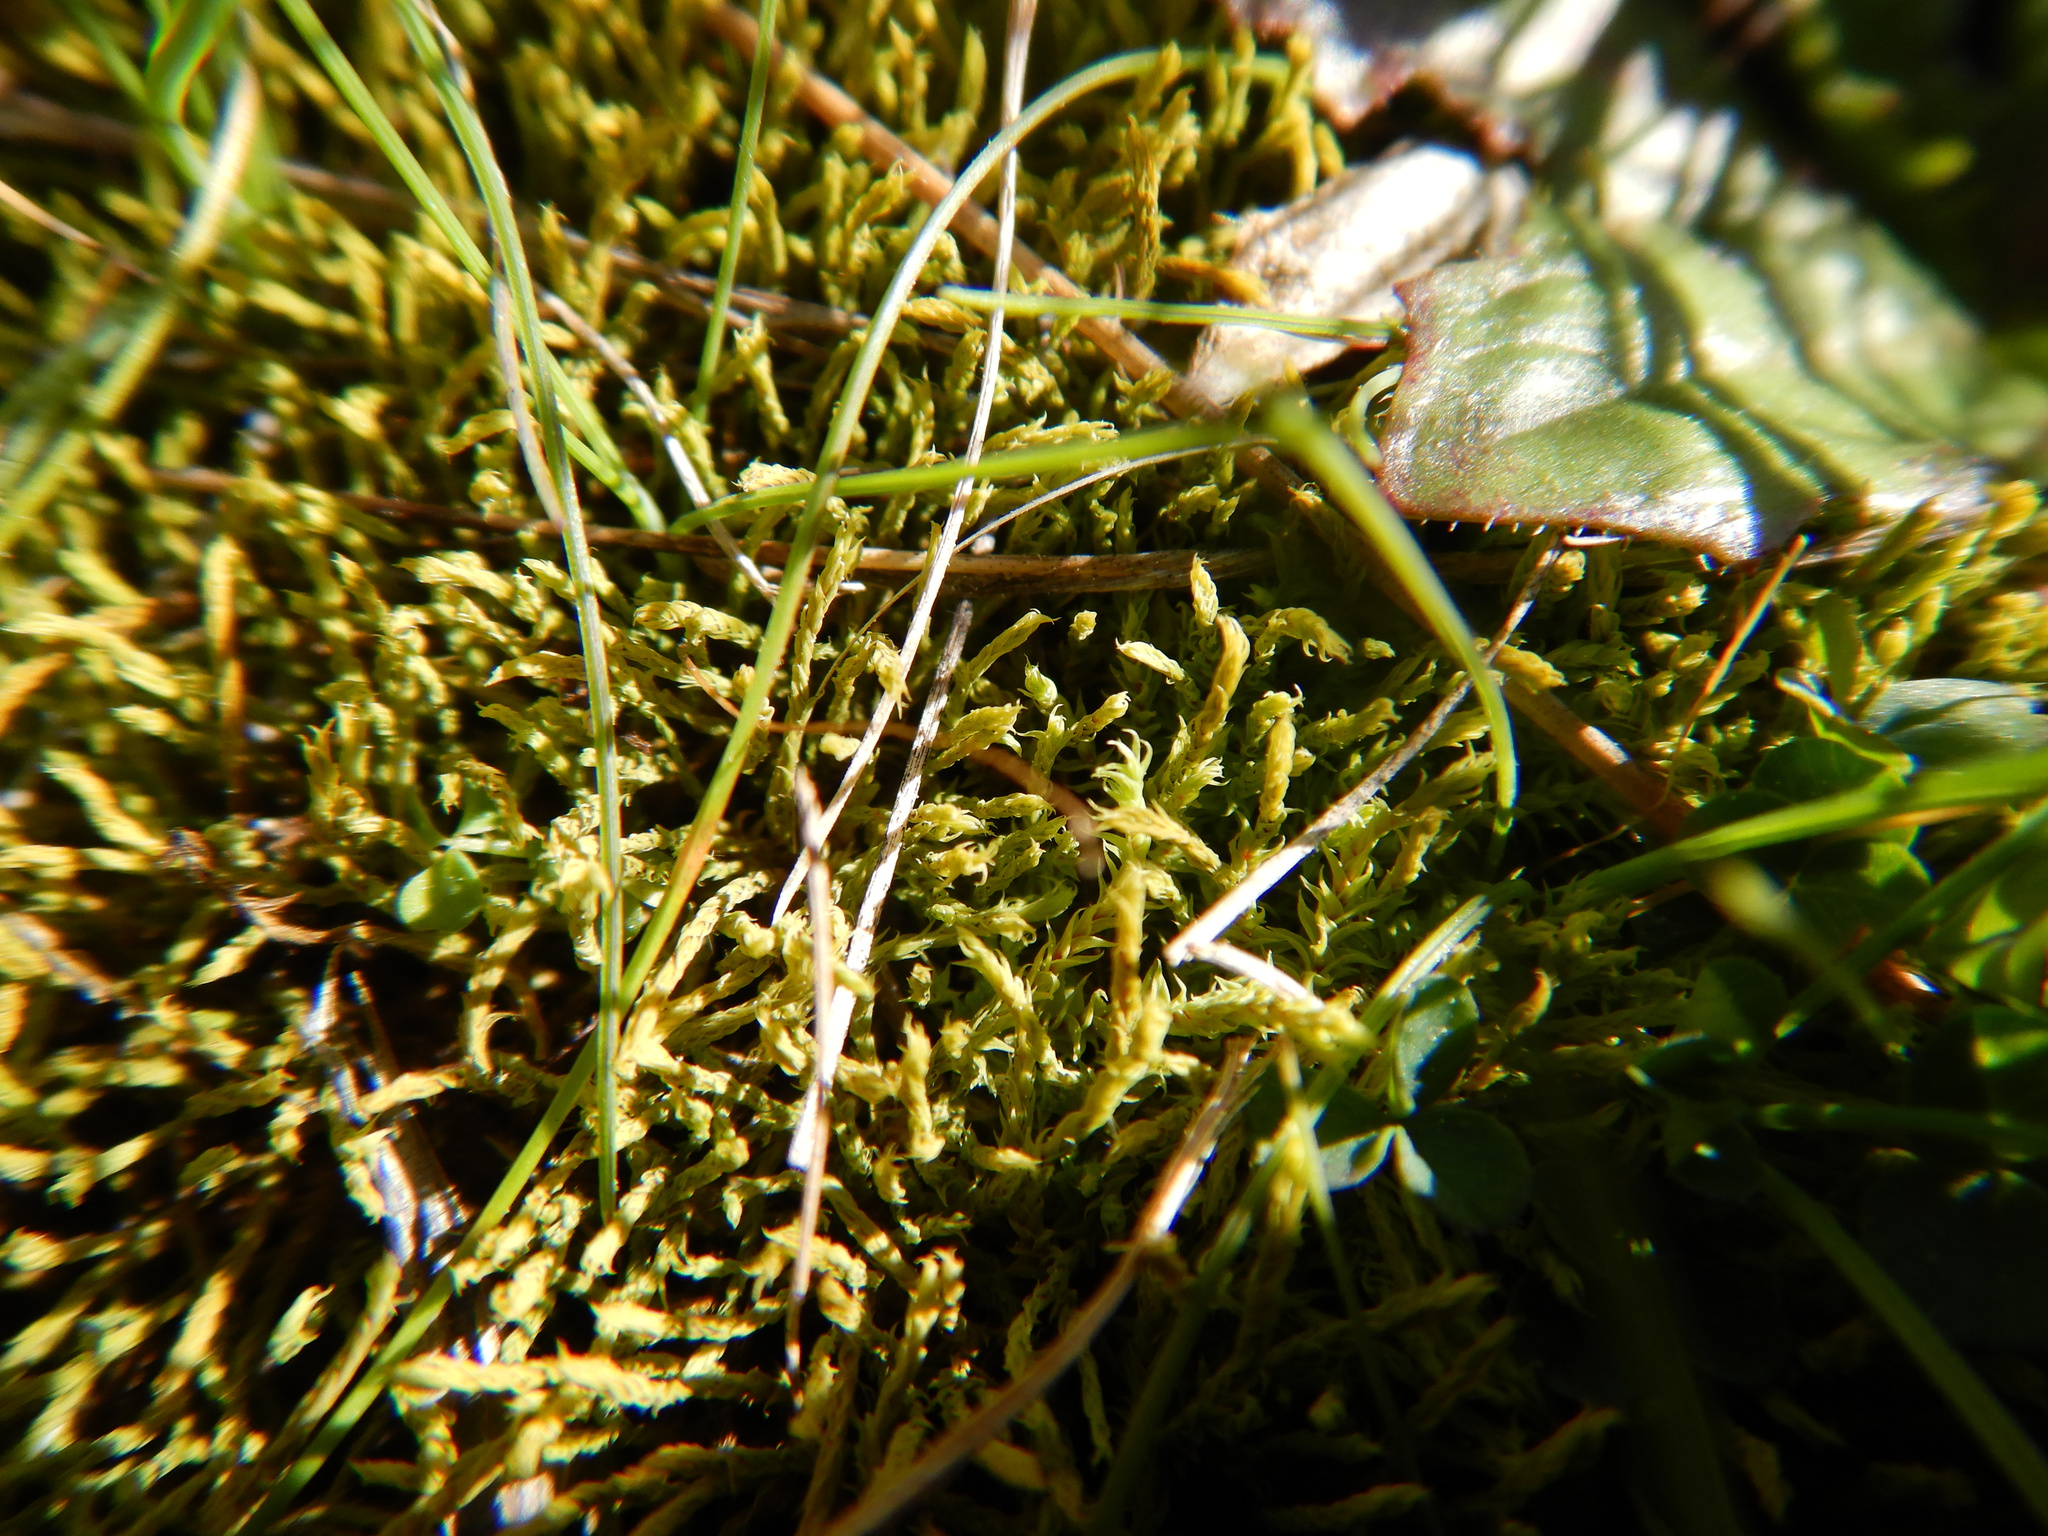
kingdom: Plantae
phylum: Bryophyta
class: Bryopsida
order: Pottiales
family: Pottiaceae
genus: Triquetrella
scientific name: Triquetrella papillata
